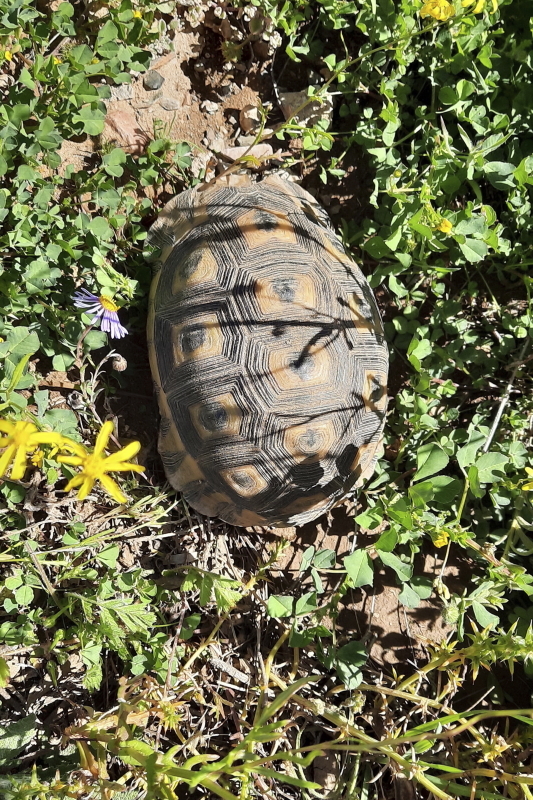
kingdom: Animalia
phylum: Chordata
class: Testudines
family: Testudinidae
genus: Chersina
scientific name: Chersina angulata
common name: South african bowsprit tortoise
